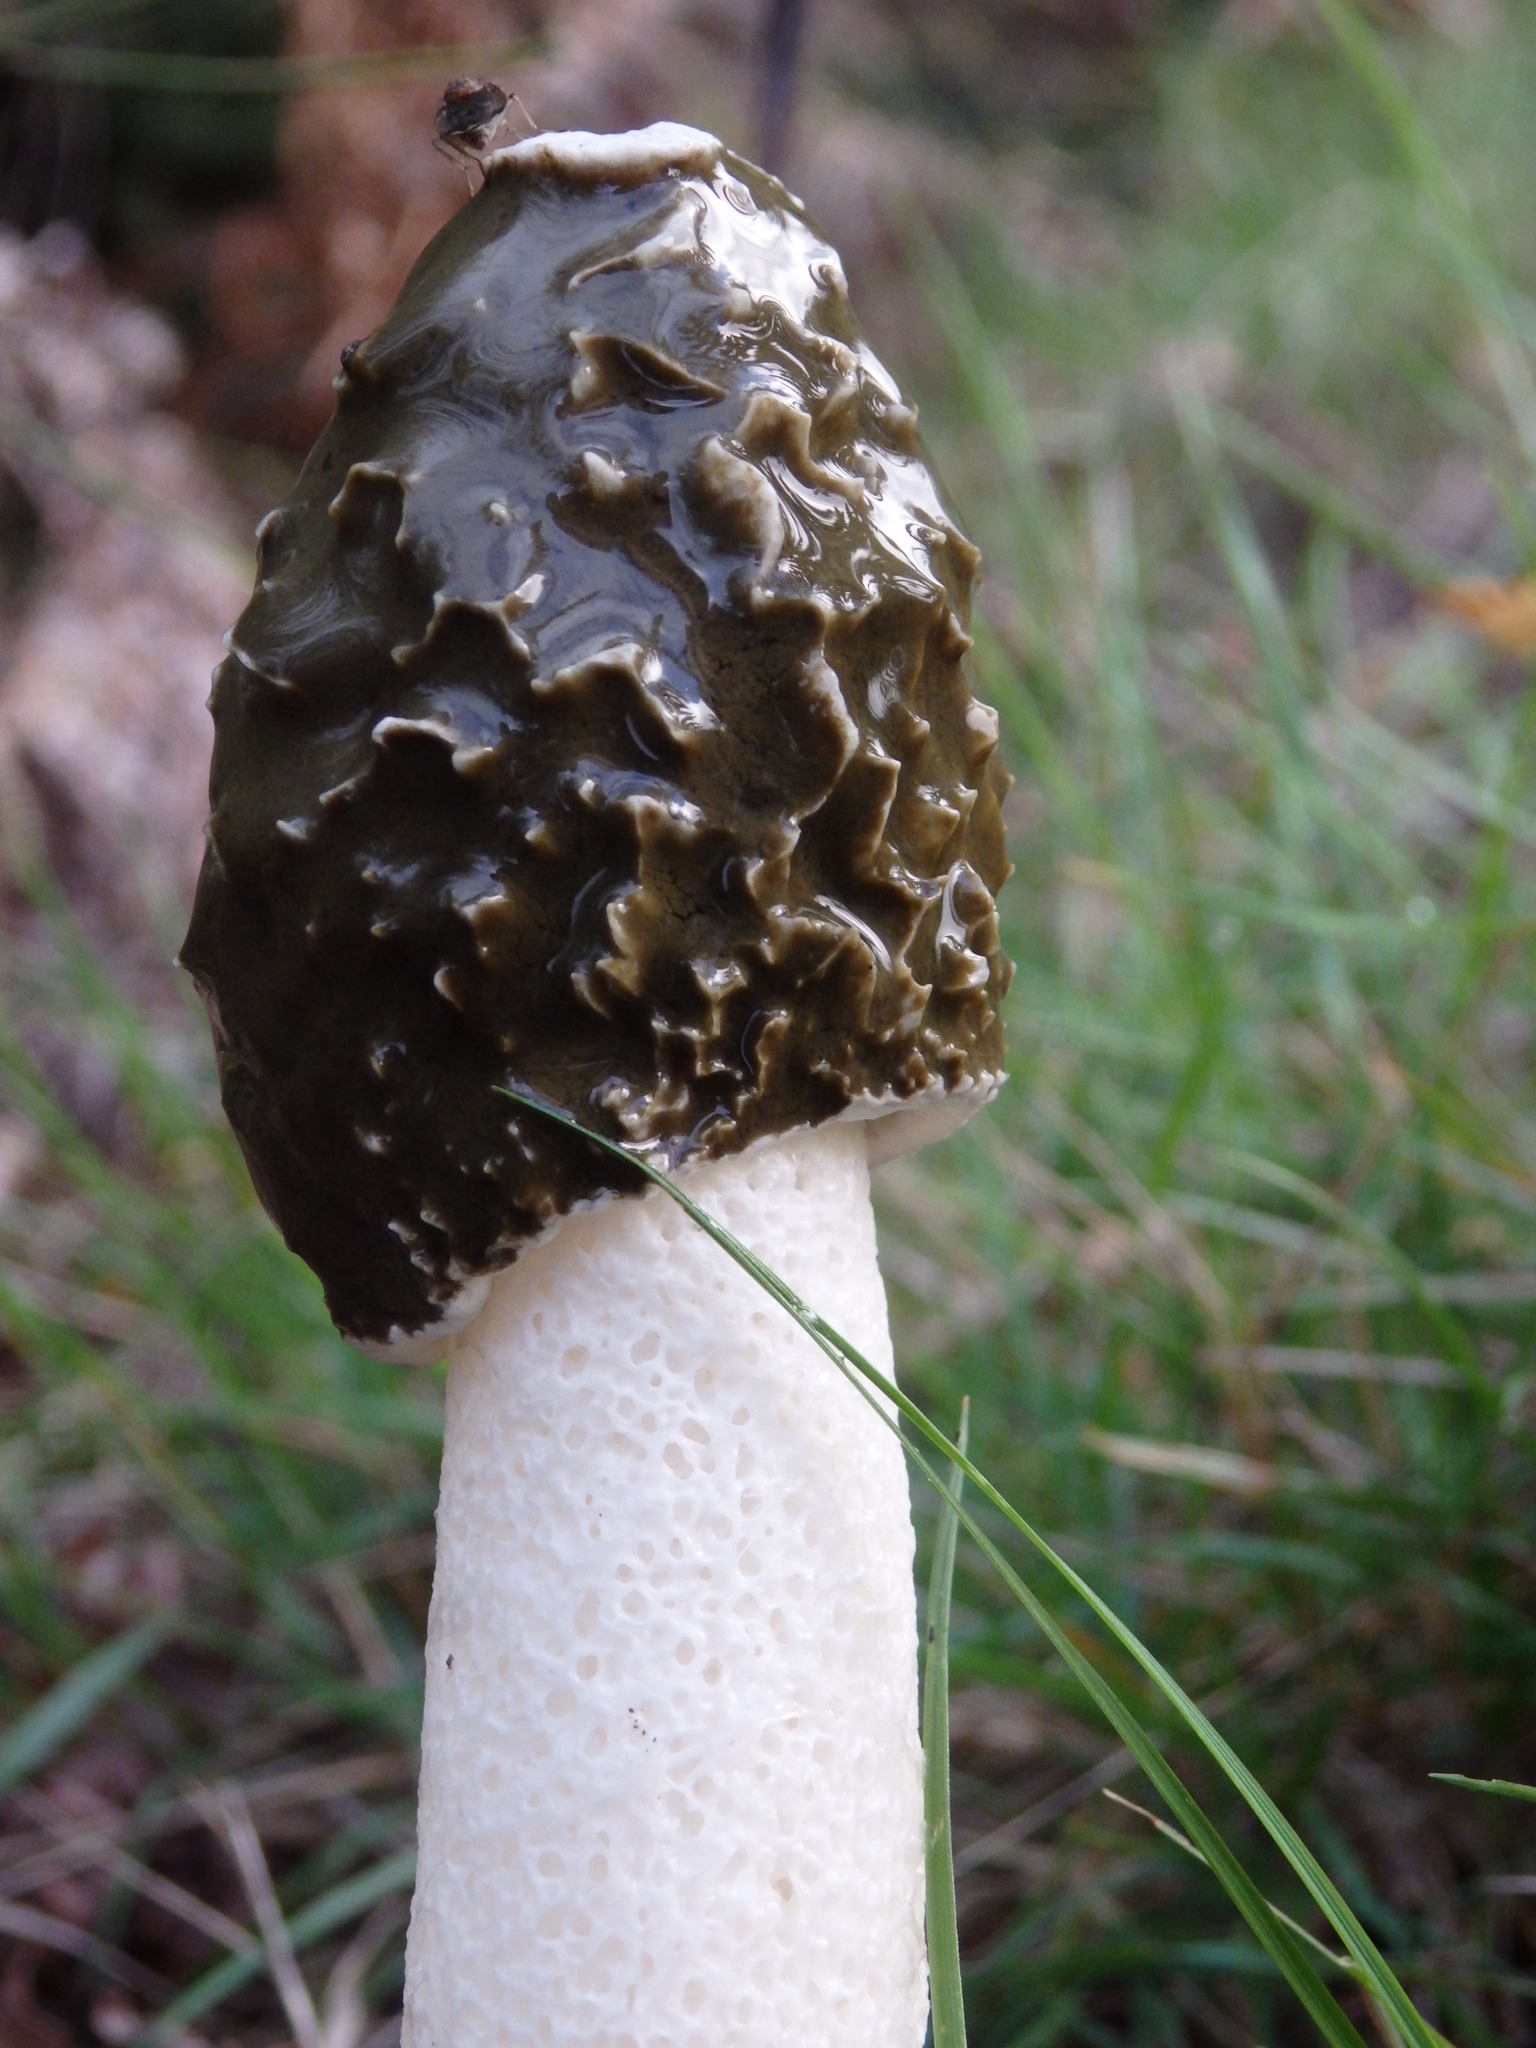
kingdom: Fungi
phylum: Basidiomycota
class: Agaricomycetes
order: Phallales
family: Phallaceae
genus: Phallus
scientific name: Phallus impudicus
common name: Common stinkhorn
